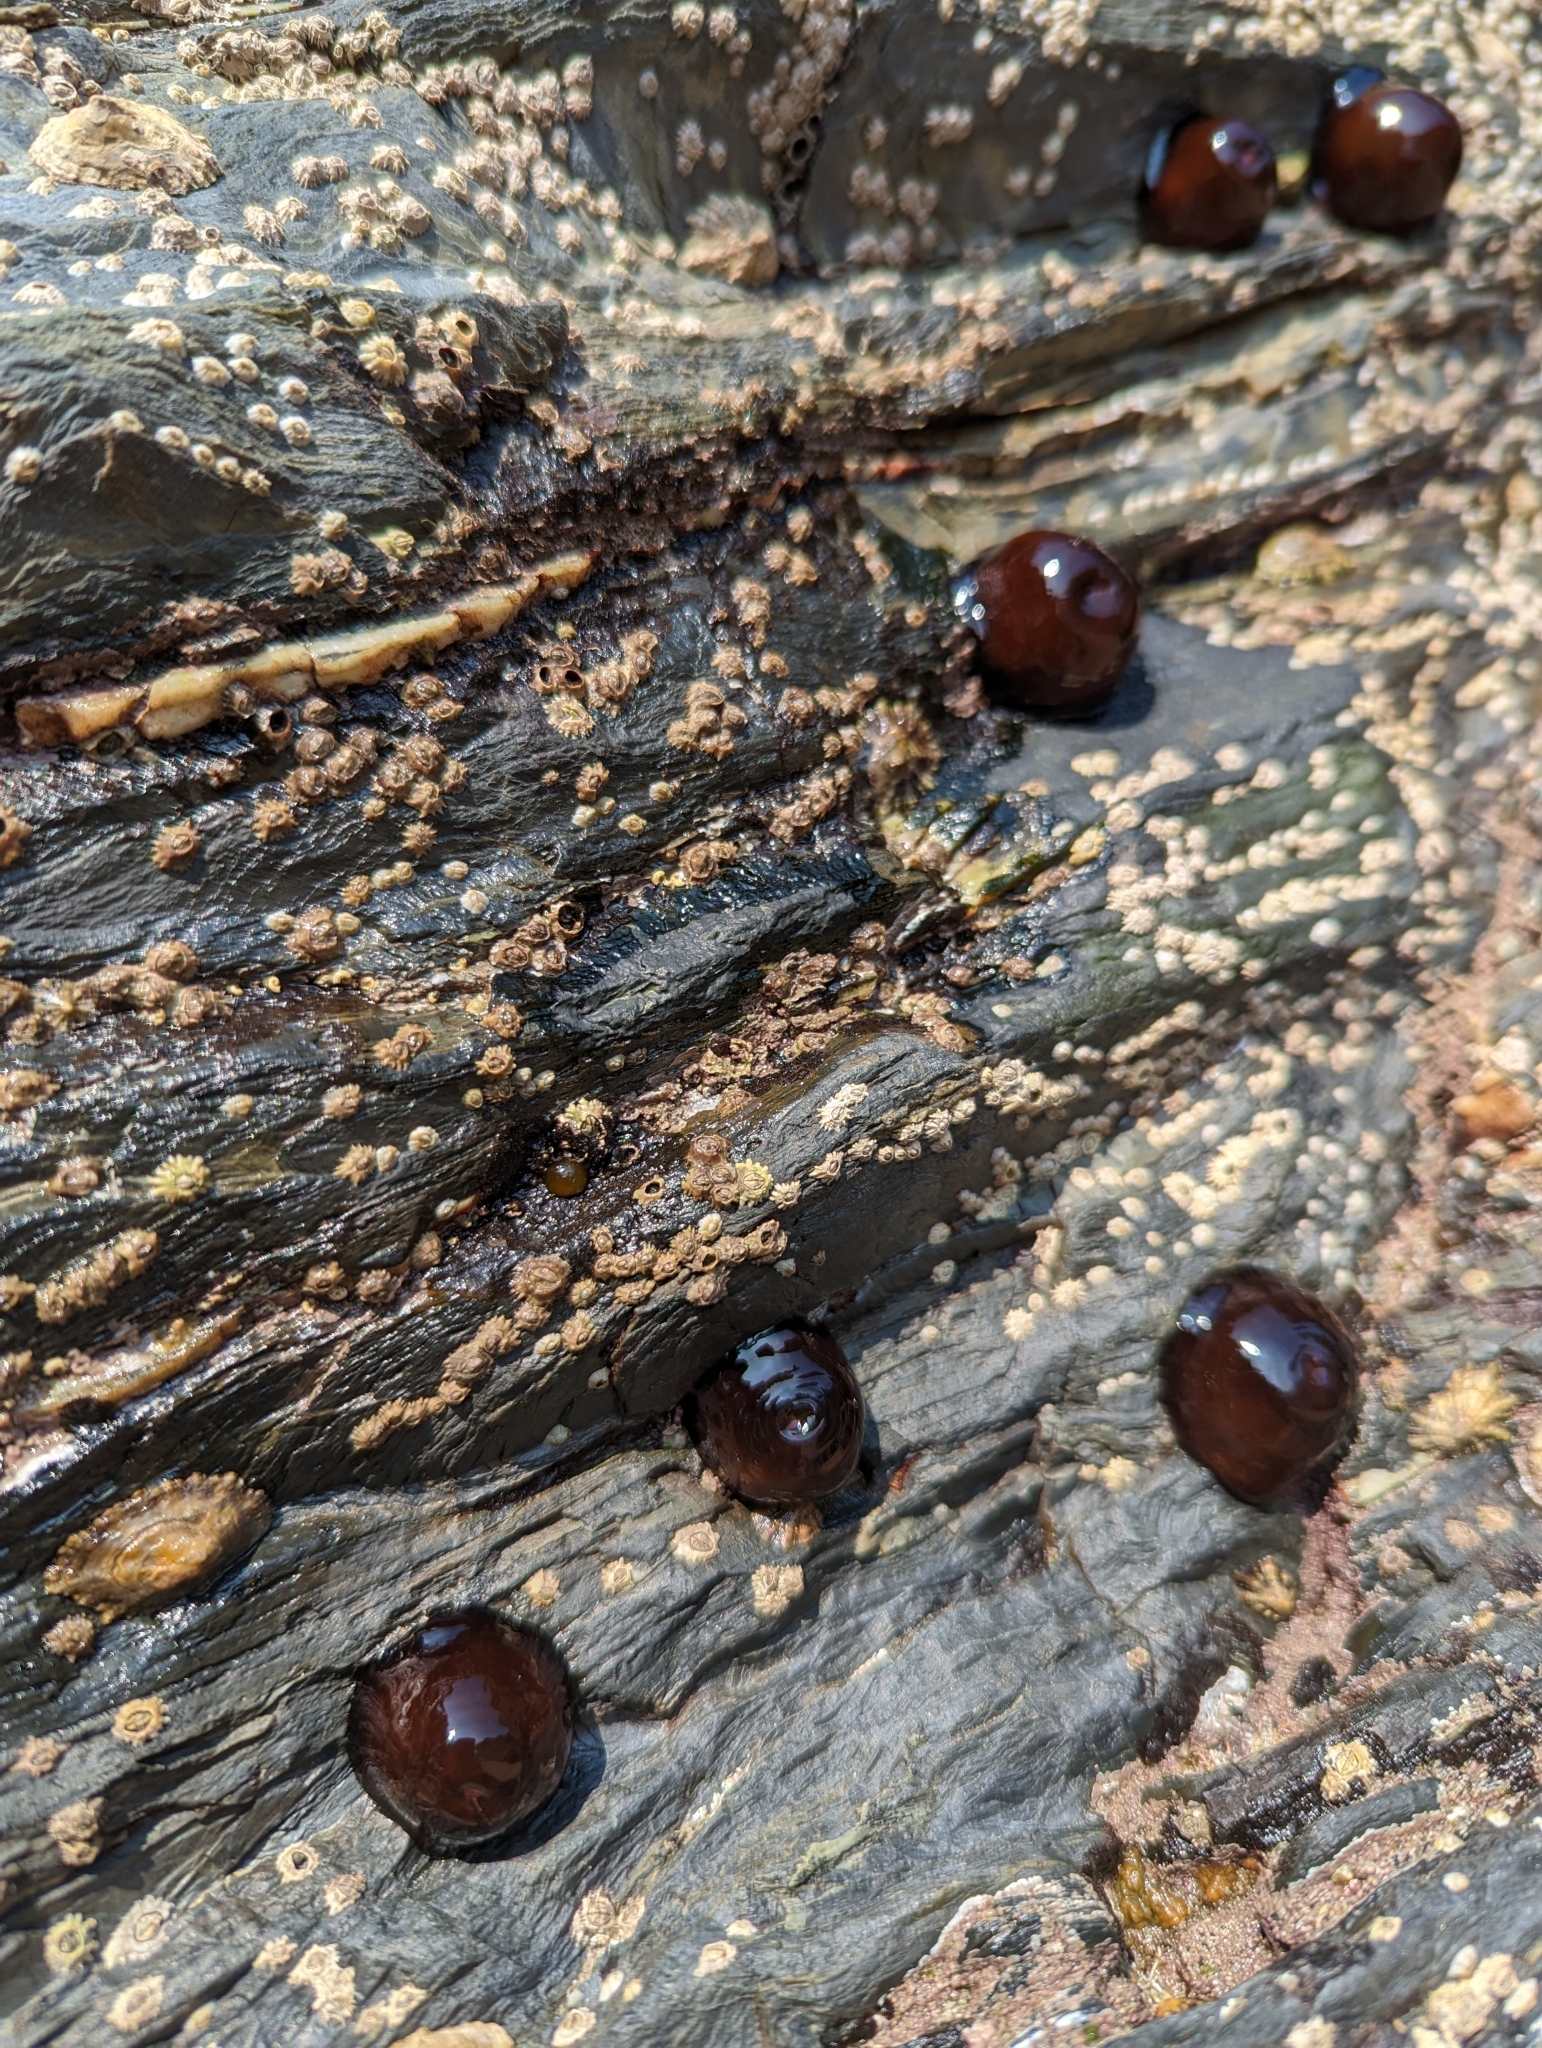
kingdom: Animalia
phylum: Cnidaria
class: Anthozoa
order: Actiniaria
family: Actiniidae
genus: Actinia
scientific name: Actinia equina
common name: Beadlet anemone
